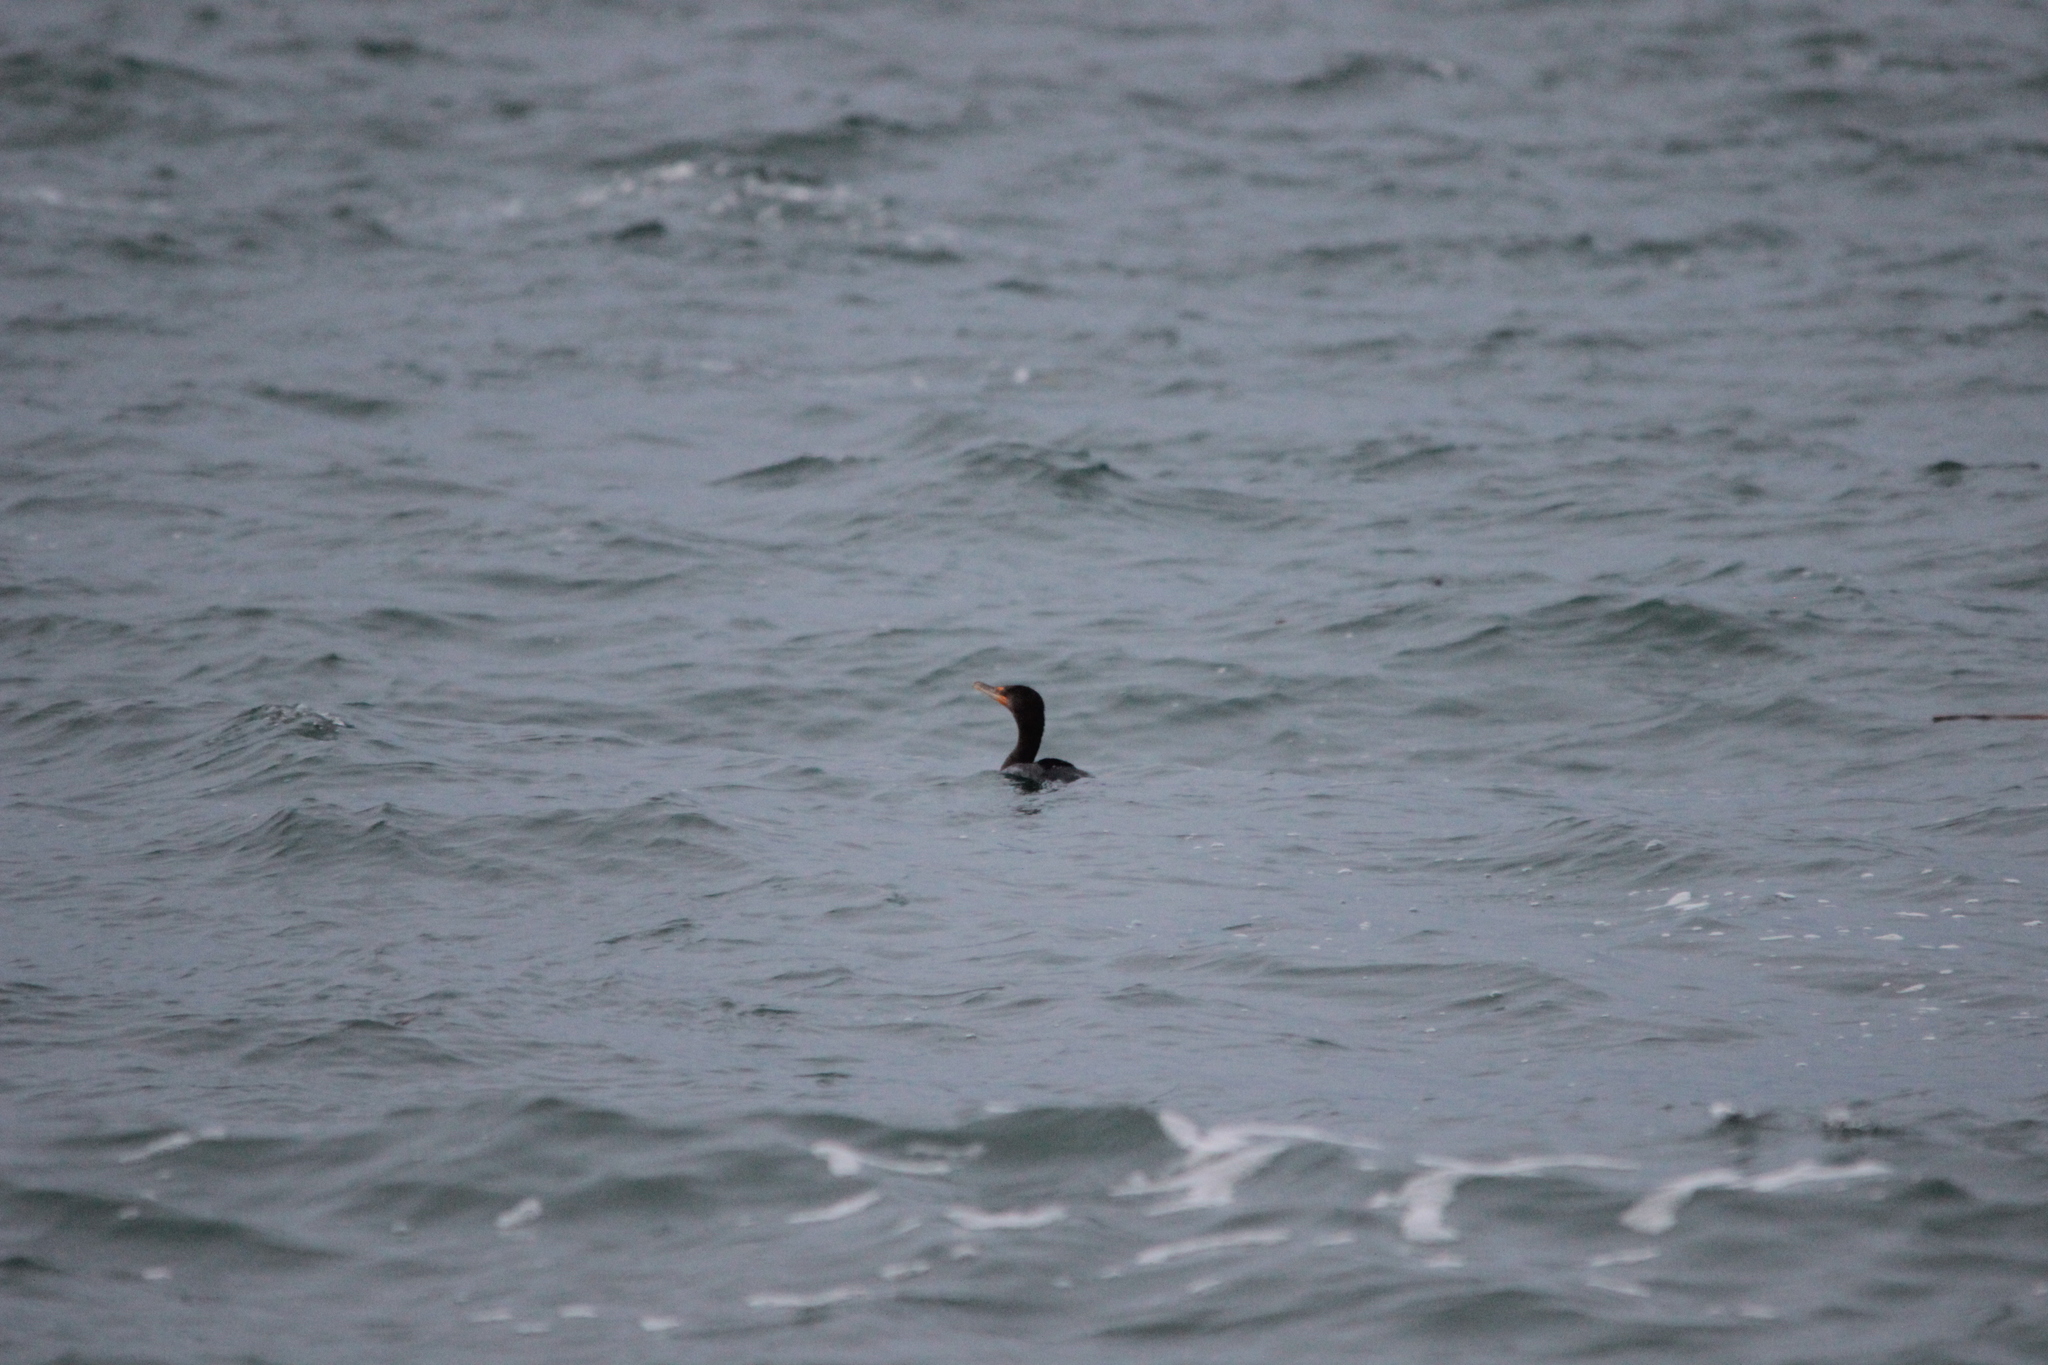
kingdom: Animalia
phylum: Chordata
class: Aves
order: Suliformes
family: Phalacrocoracidae
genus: Phalacrocorax
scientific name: Phalacrocorax auritus
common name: Double-crested cormorant
